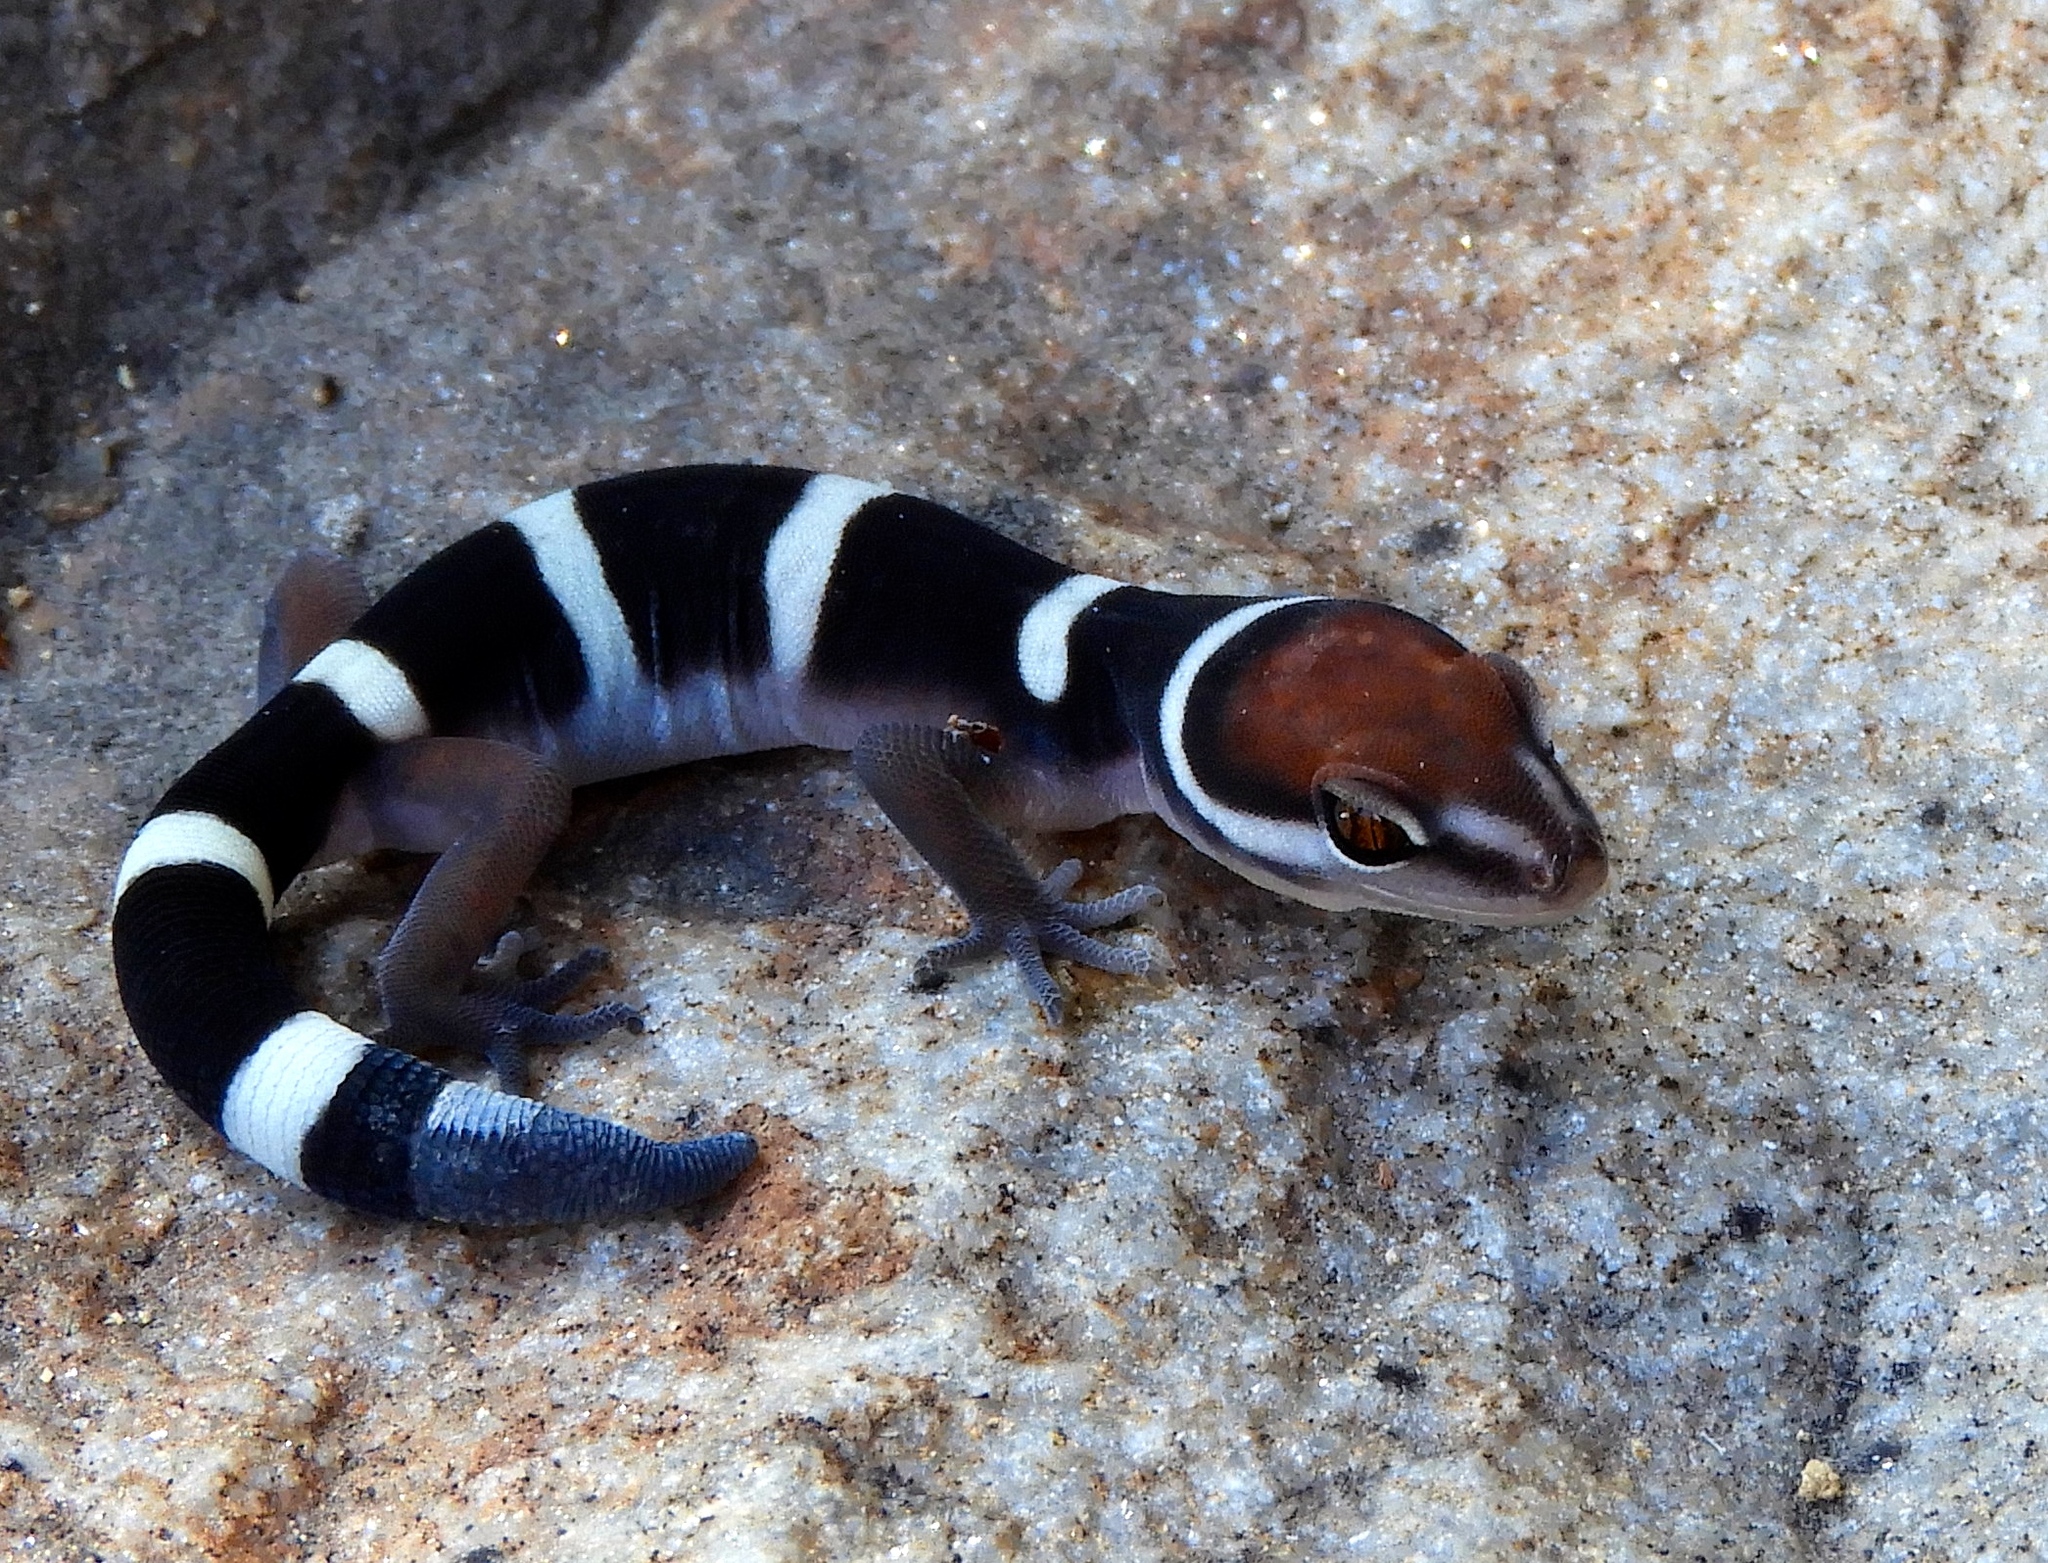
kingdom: Animalia
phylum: Chordata
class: Squamata
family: Eublepharidae
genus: Coleonyx
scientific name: Coleonyx fasciatus
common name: Black banded gecko
